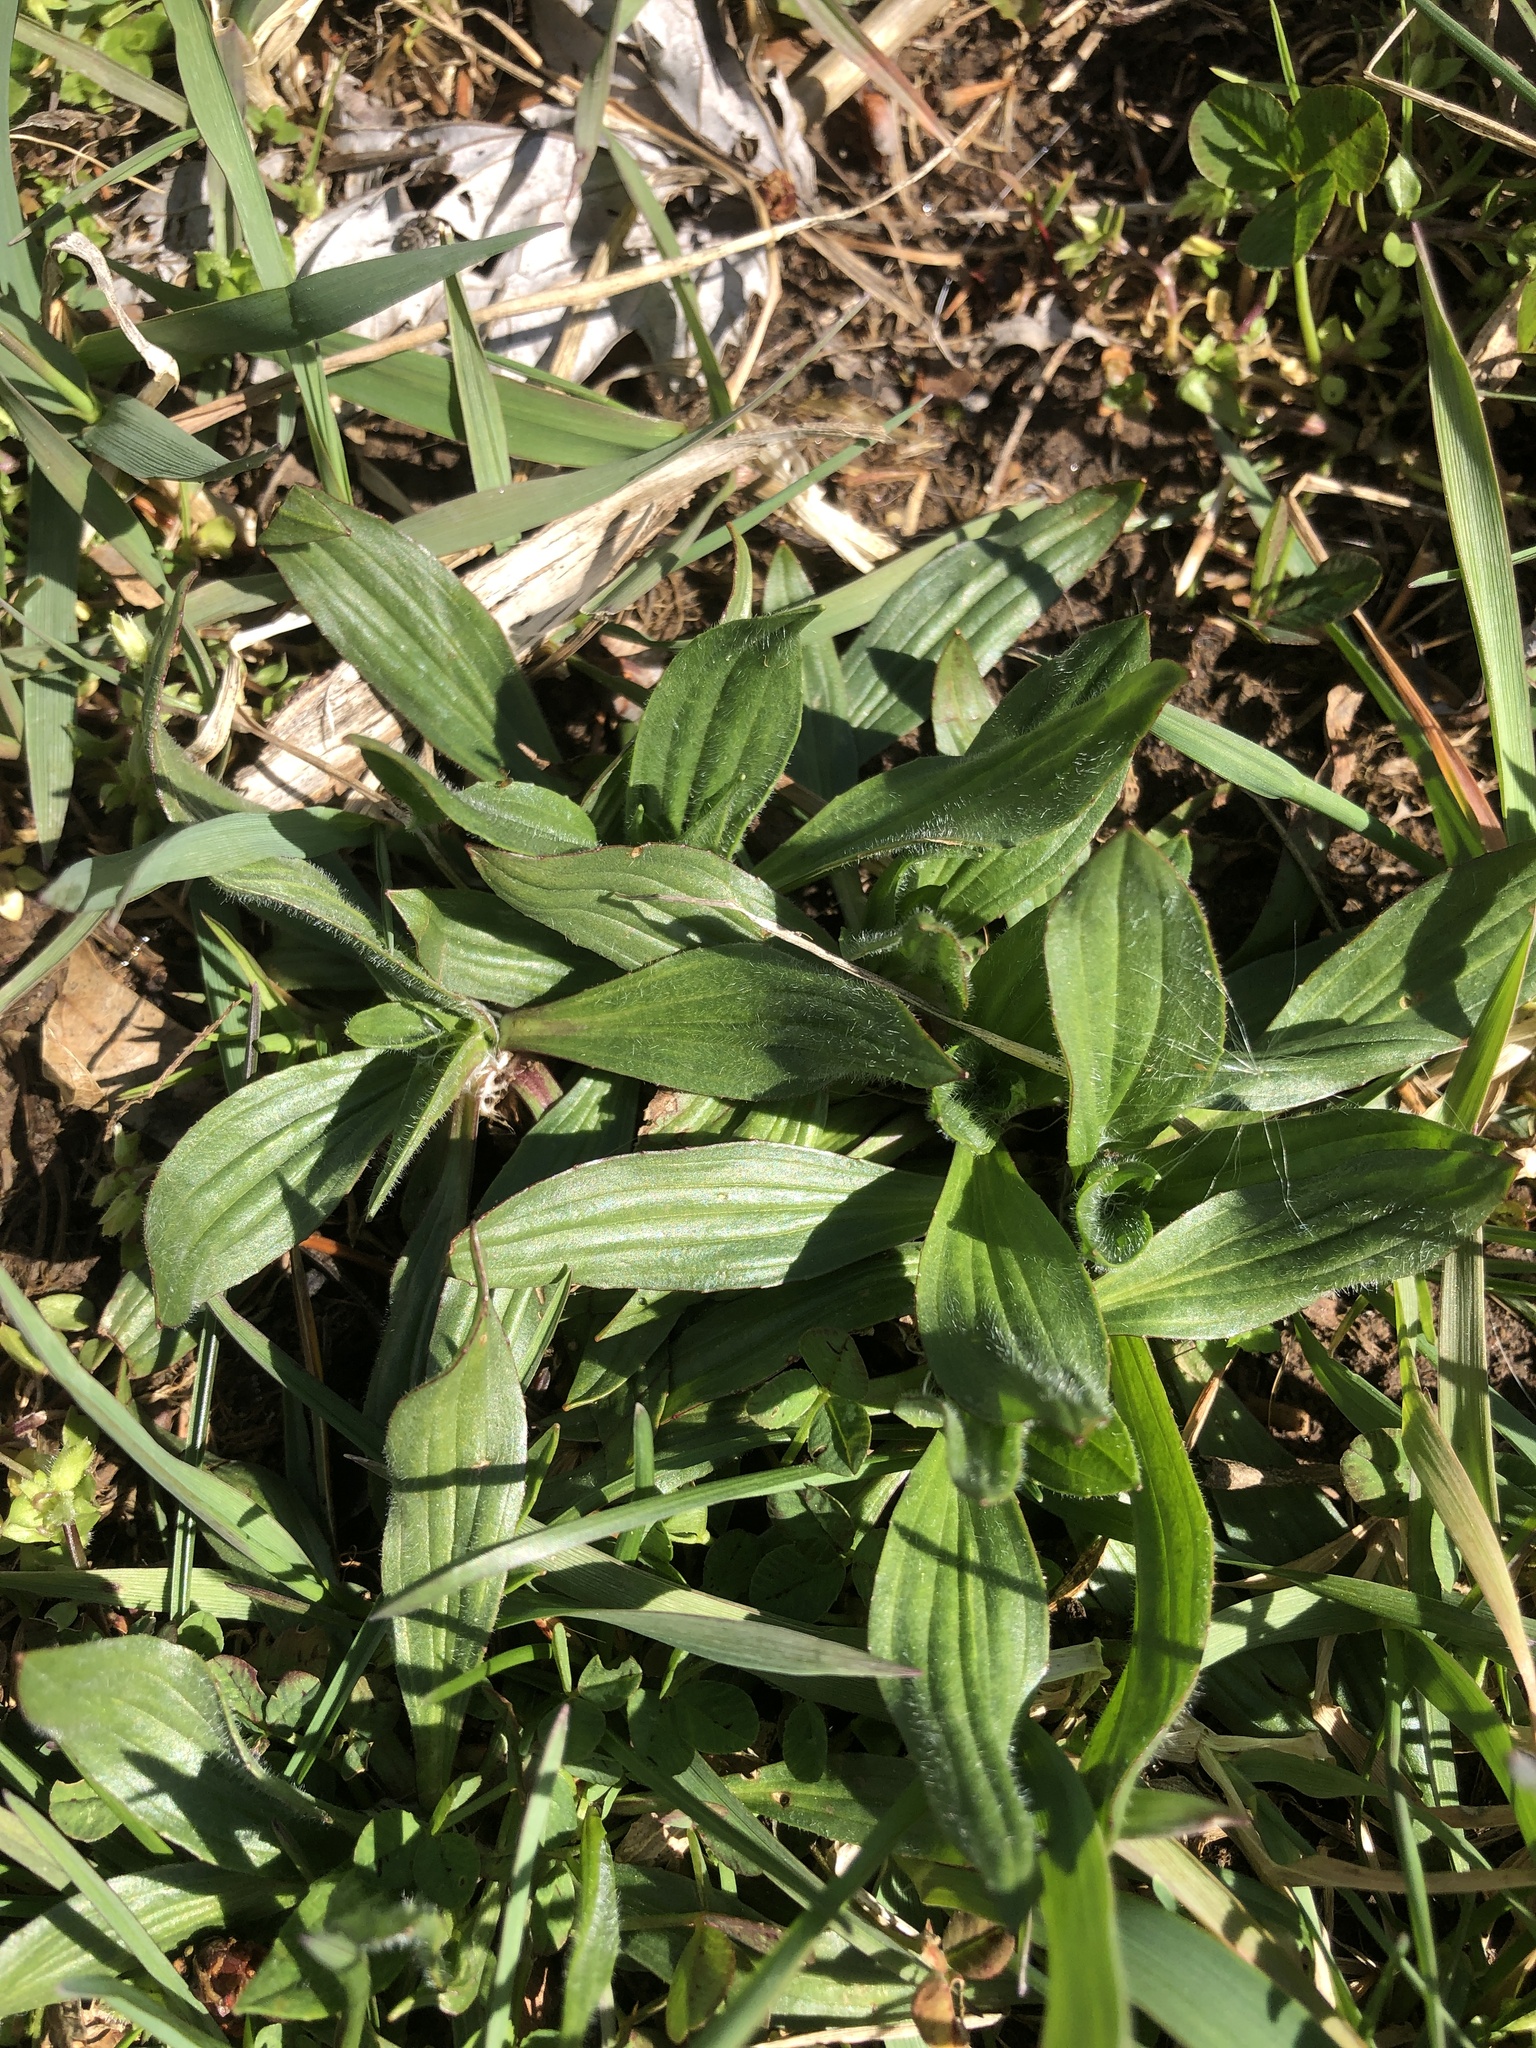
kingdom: Plantae
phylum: Tracheophyta
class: Magnoliopsida
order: Lamiales
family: Plantaginaceae
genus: Plantago
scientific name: Plantago lanceolata
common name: Ribwort plantain
